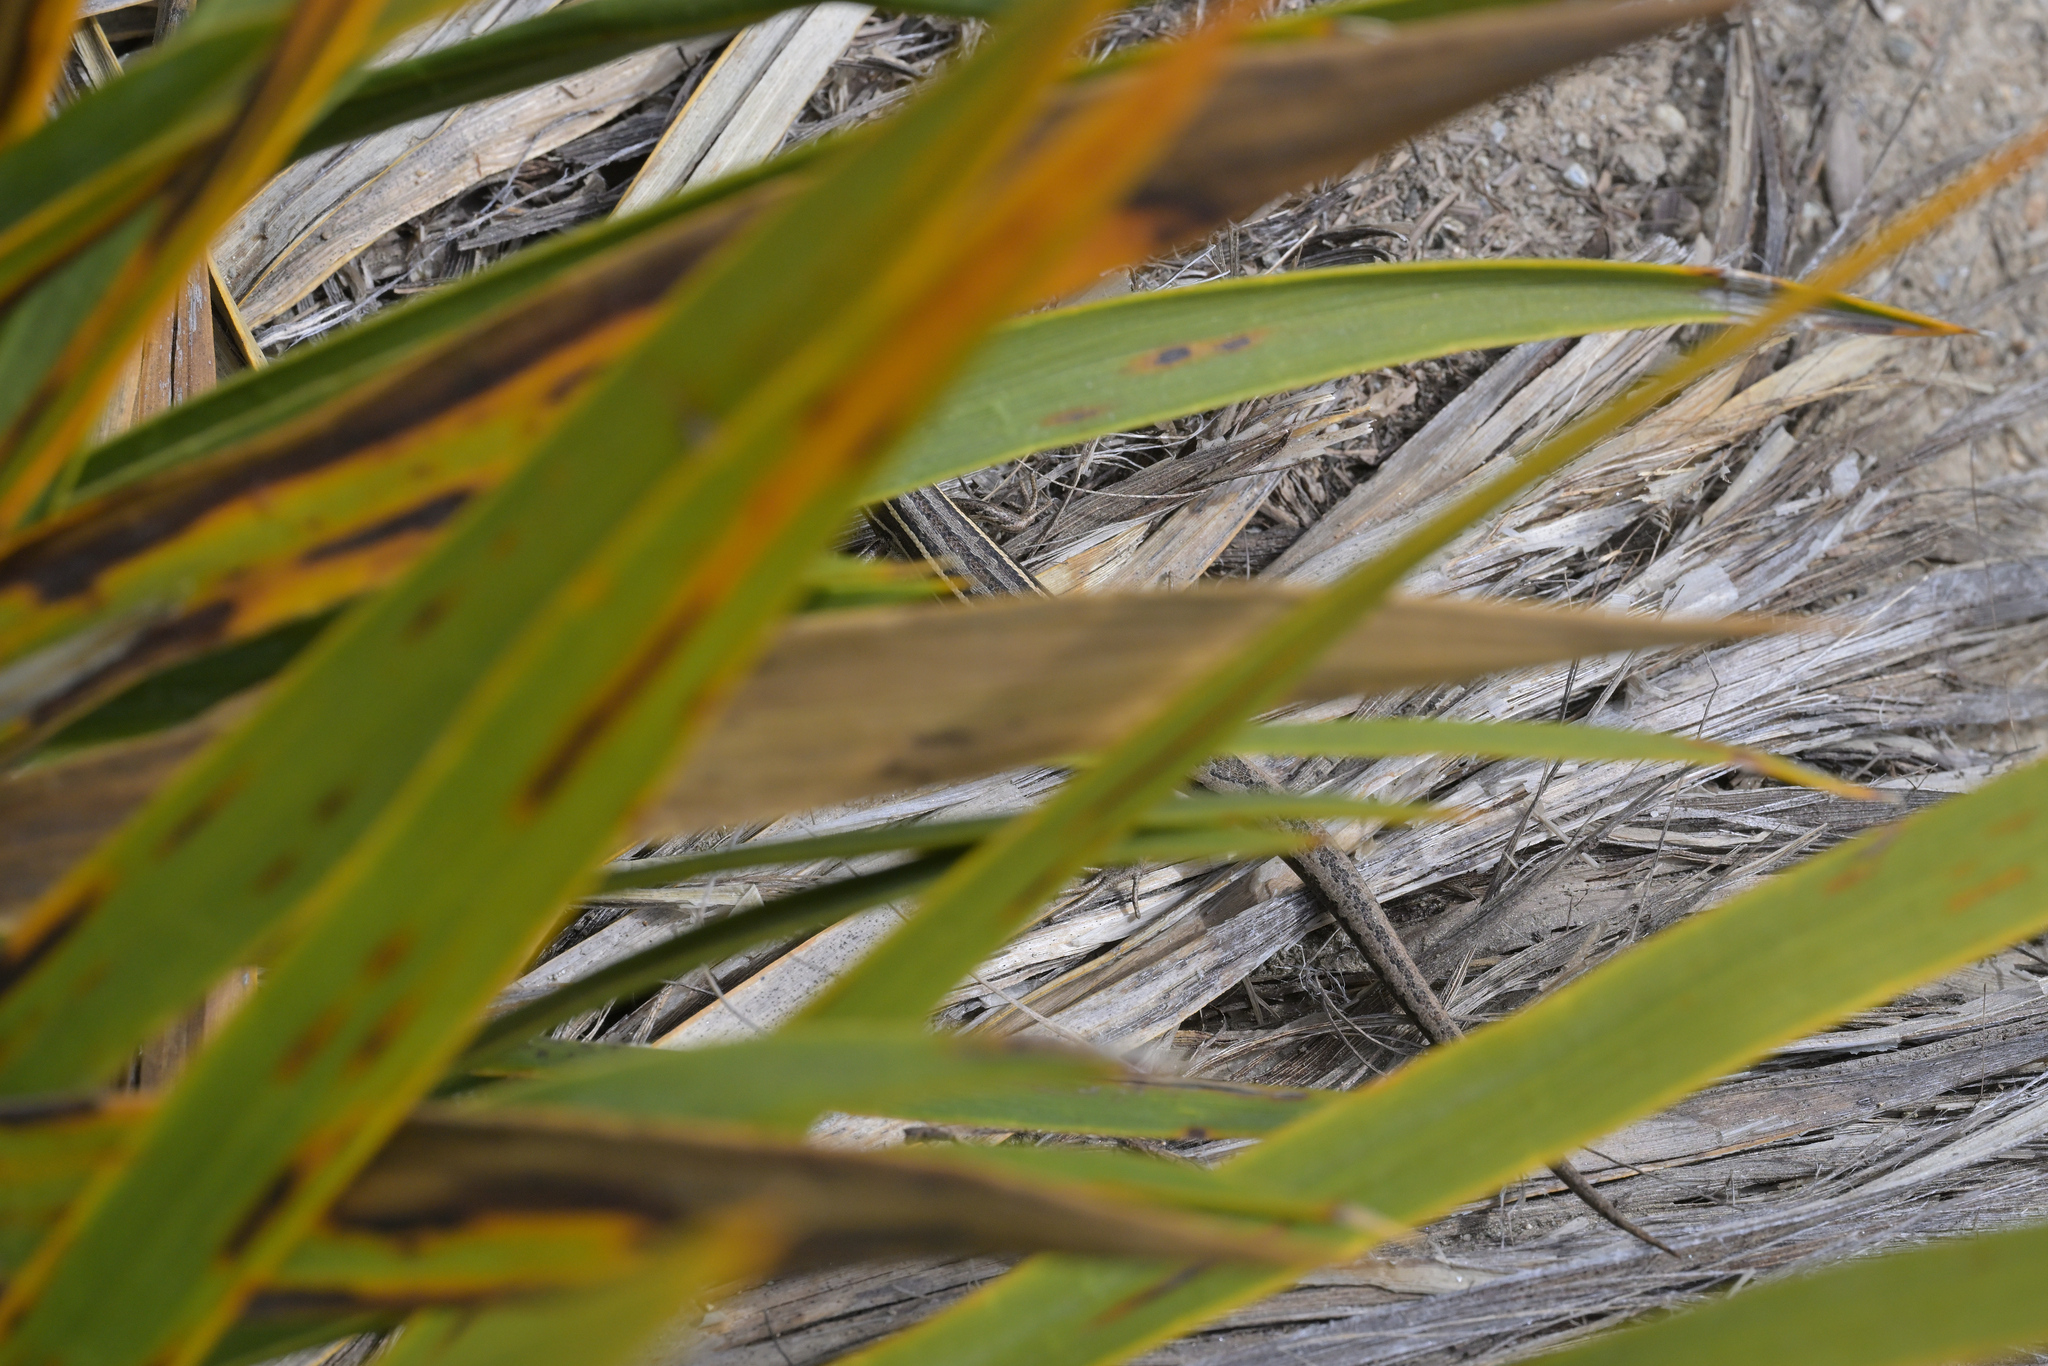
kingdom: Animalia
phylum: Chordata
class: Squamata
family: Scincidae
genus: Oligosoma
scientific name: Oligosoma maccanni
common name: Mccann’s skink
